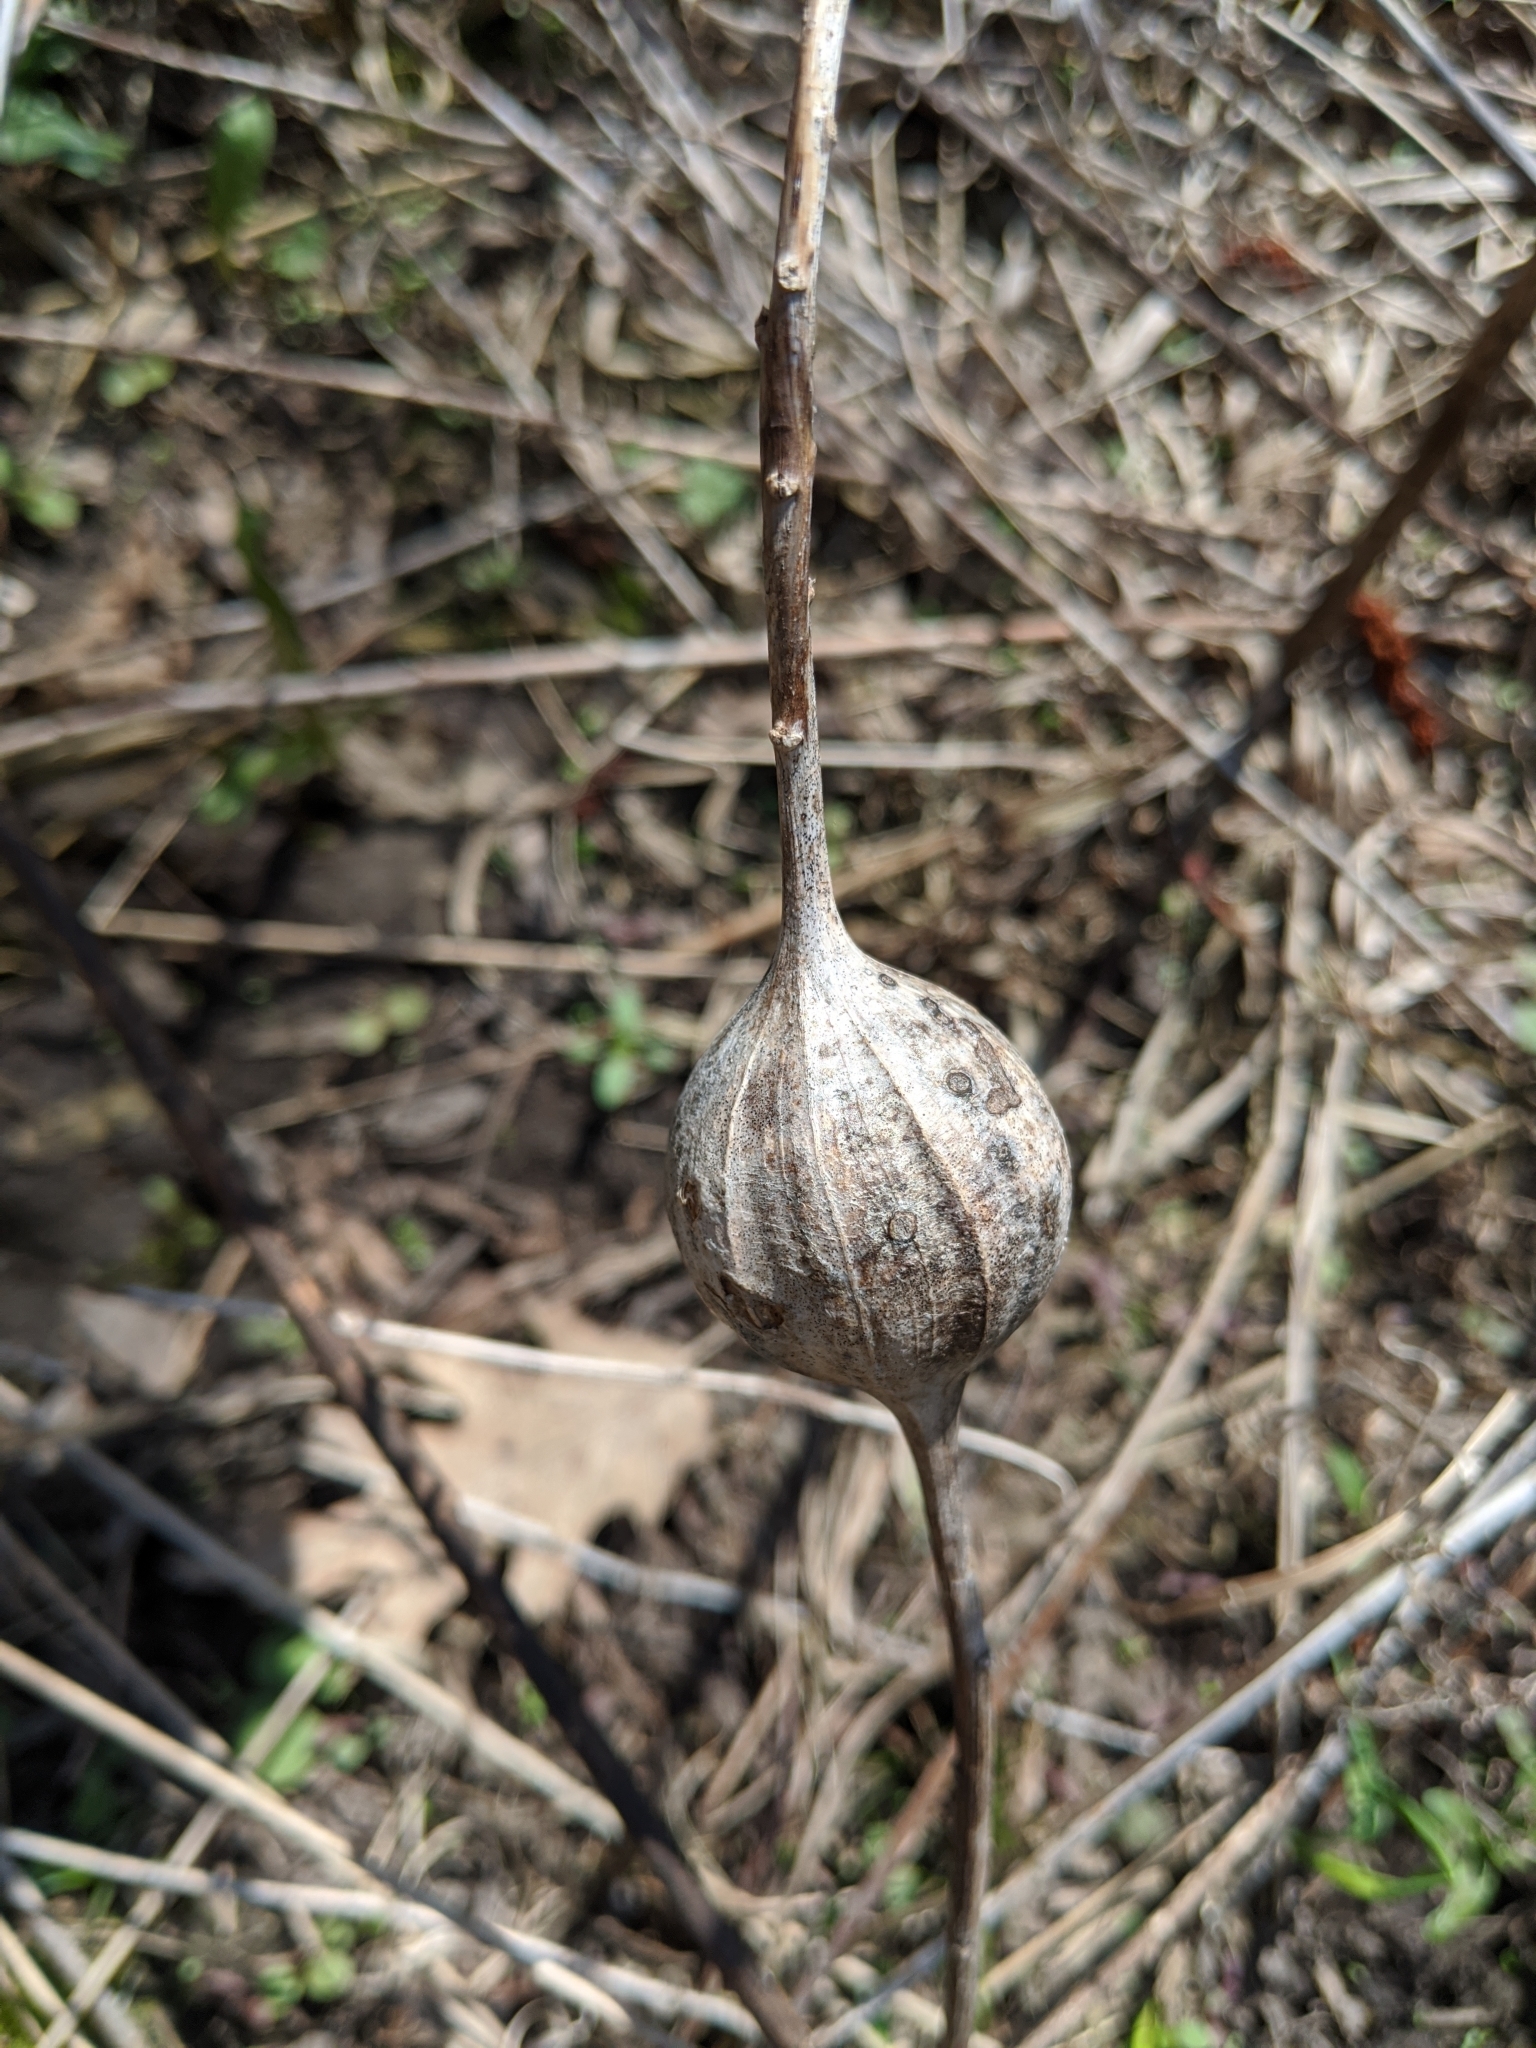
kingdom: Animalia
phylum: Arthropoda
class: Insecta
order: Diptera
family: Tephritidae
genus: Eurosta
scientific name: Eurosta solidaginis
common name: Goldenrod gall fly
